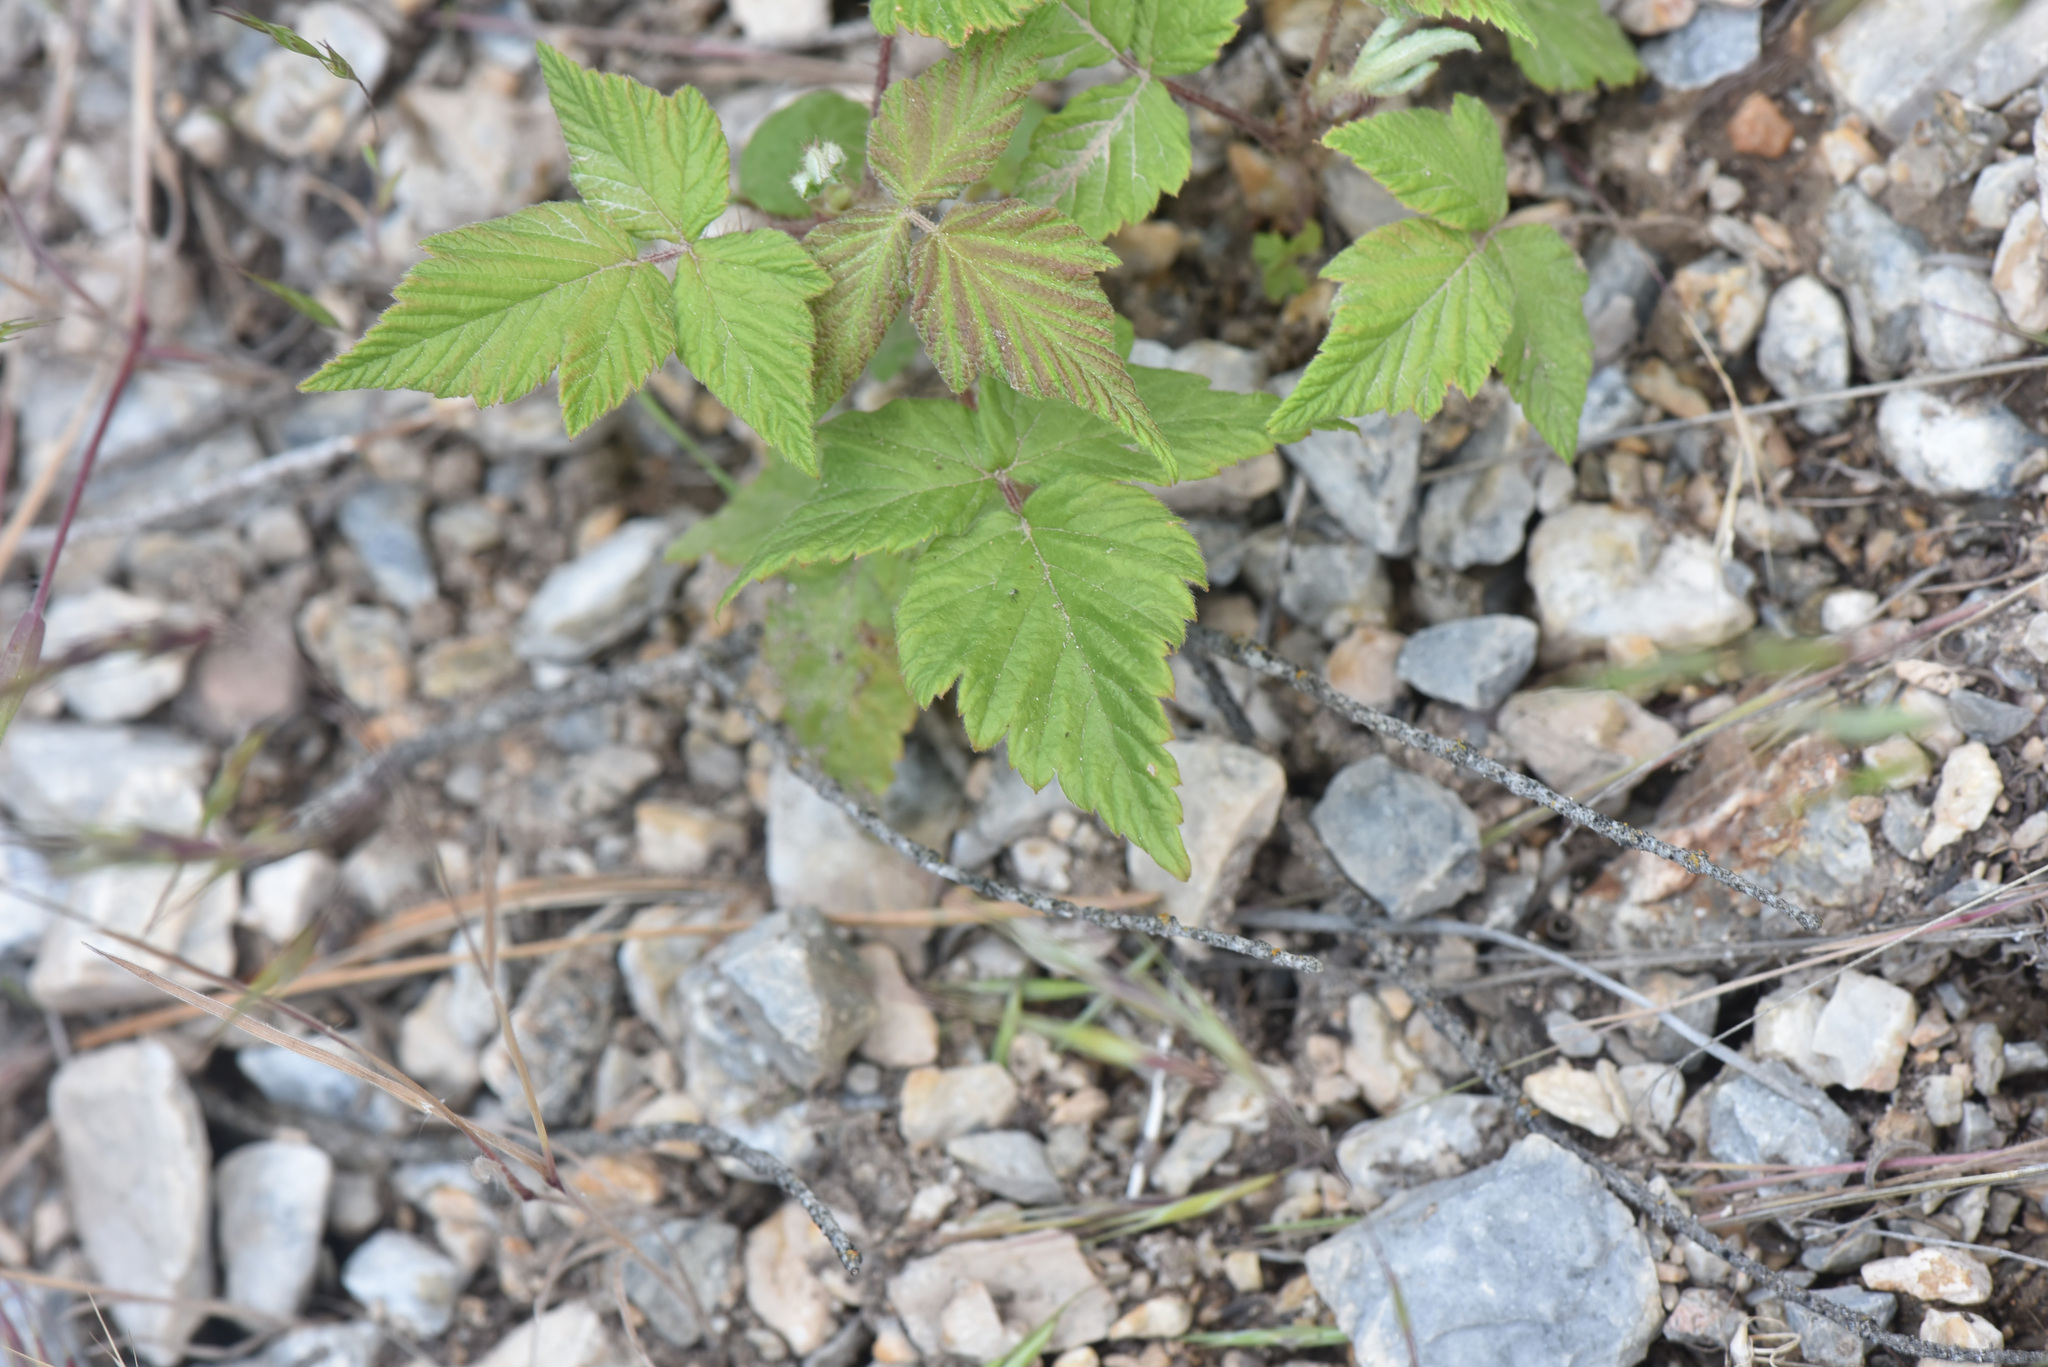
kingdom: Plantae
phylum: Tracheophyta
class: Magnoliopsida
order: Rosales
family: Rosaceae
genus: Rubus
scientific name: Rubus idaeus
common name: Raspberry
